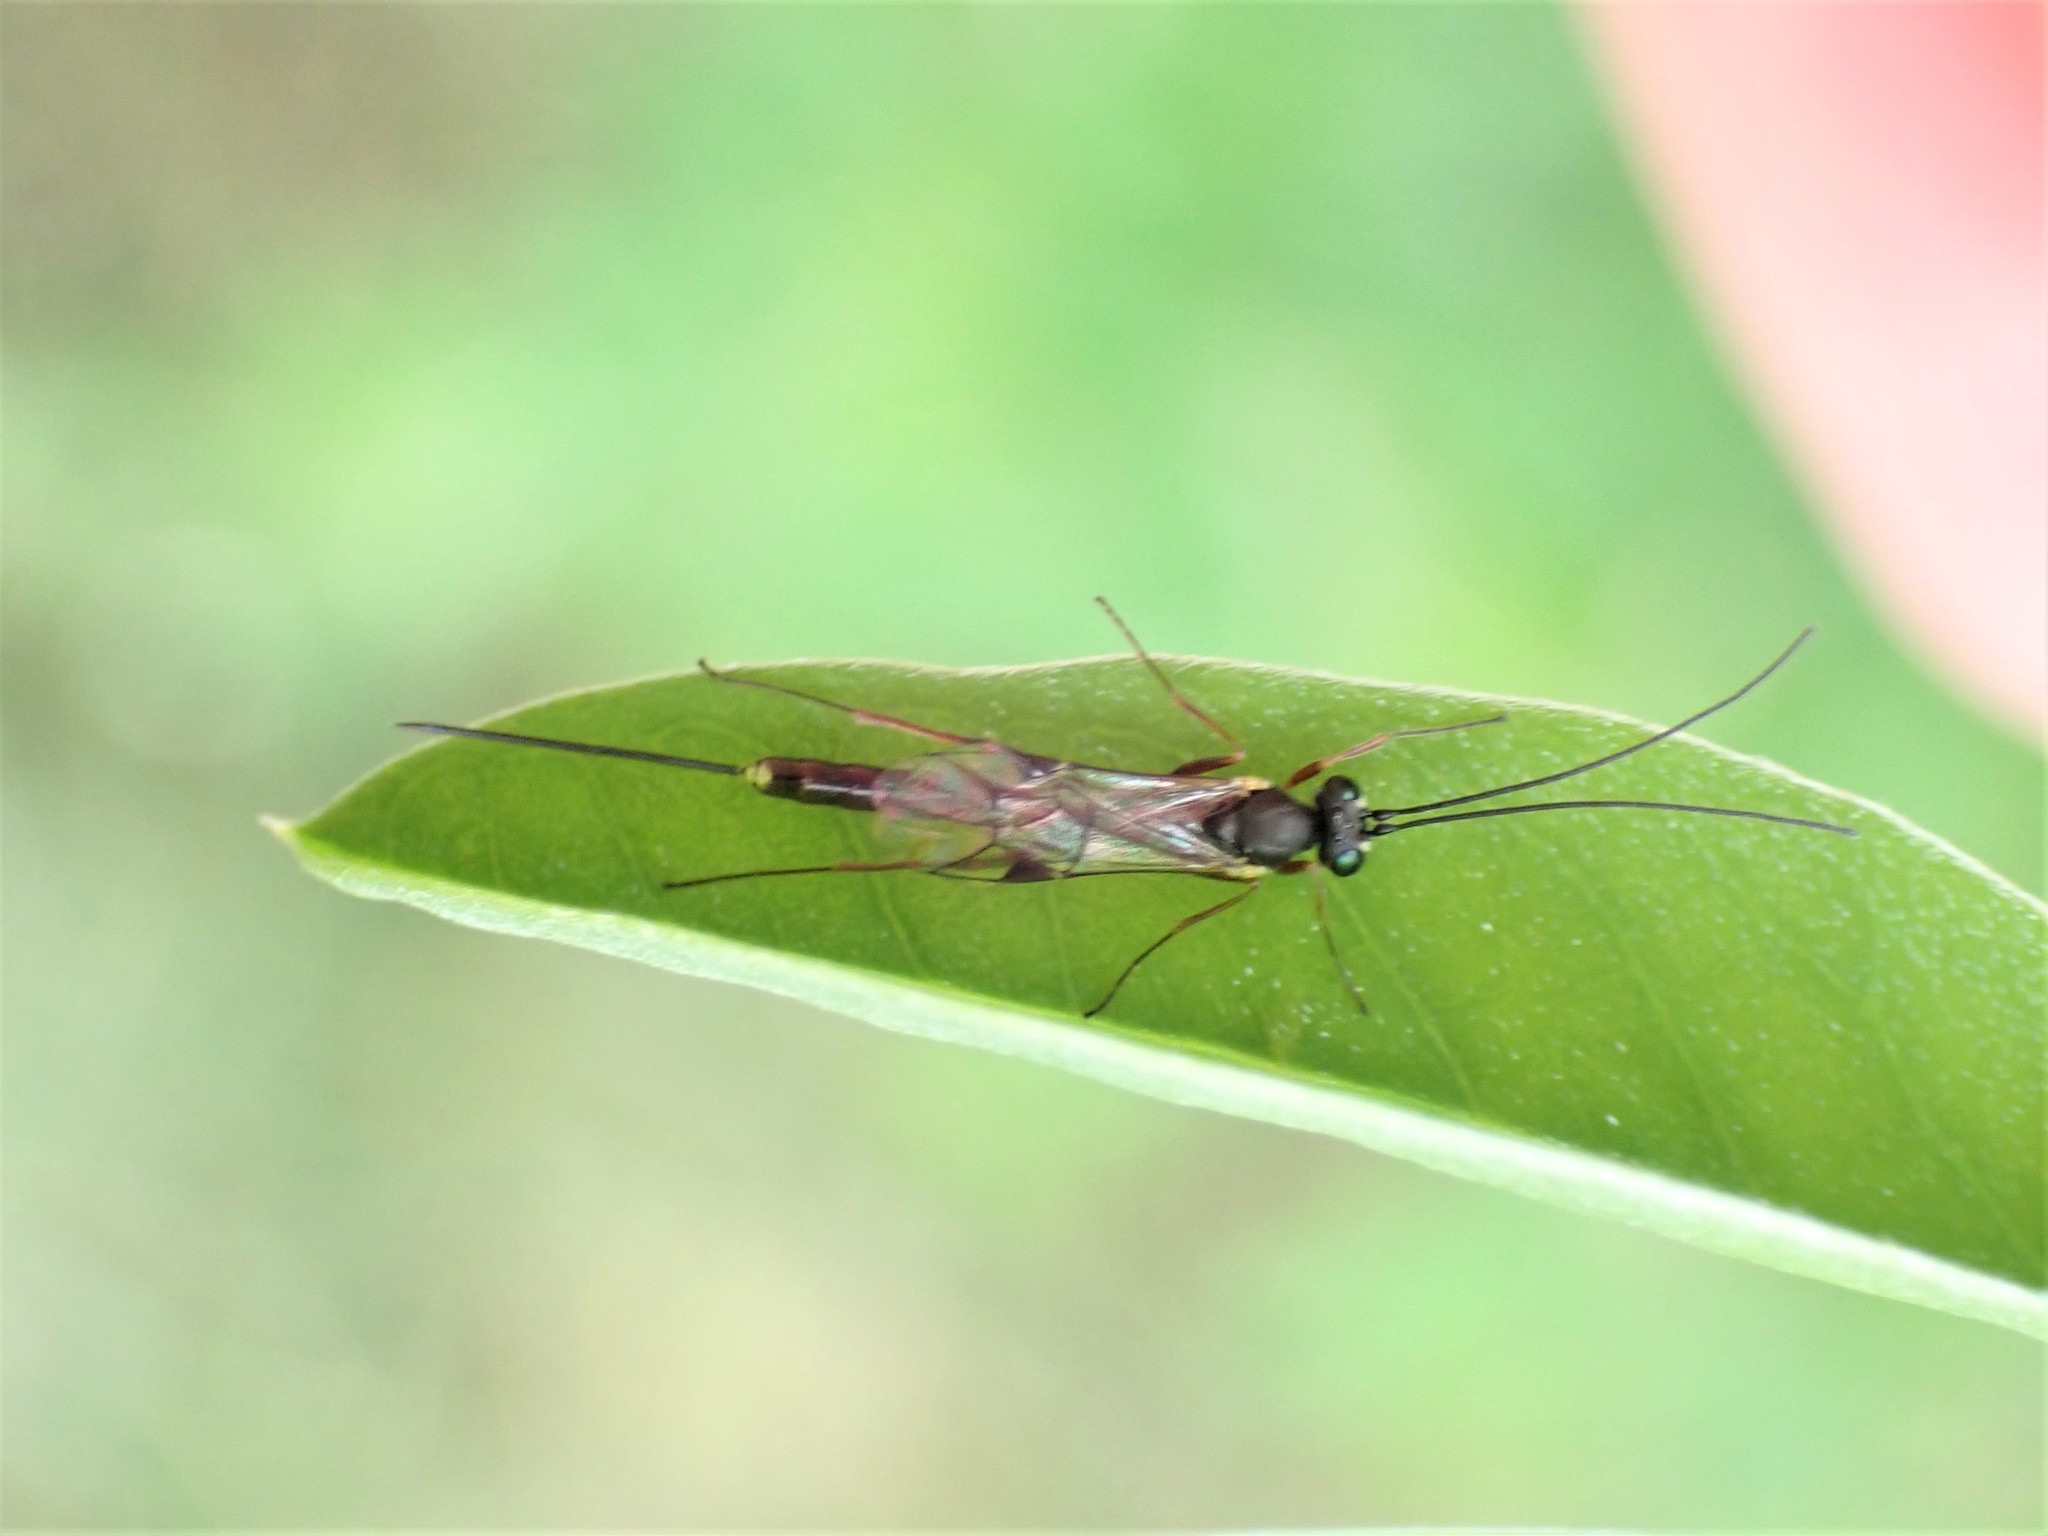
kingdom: Animalia
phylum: Arthropoda
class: Insecta
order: Hymenoptera
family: Ichneumonidae
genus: Trathala
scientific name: Trathala agnina
